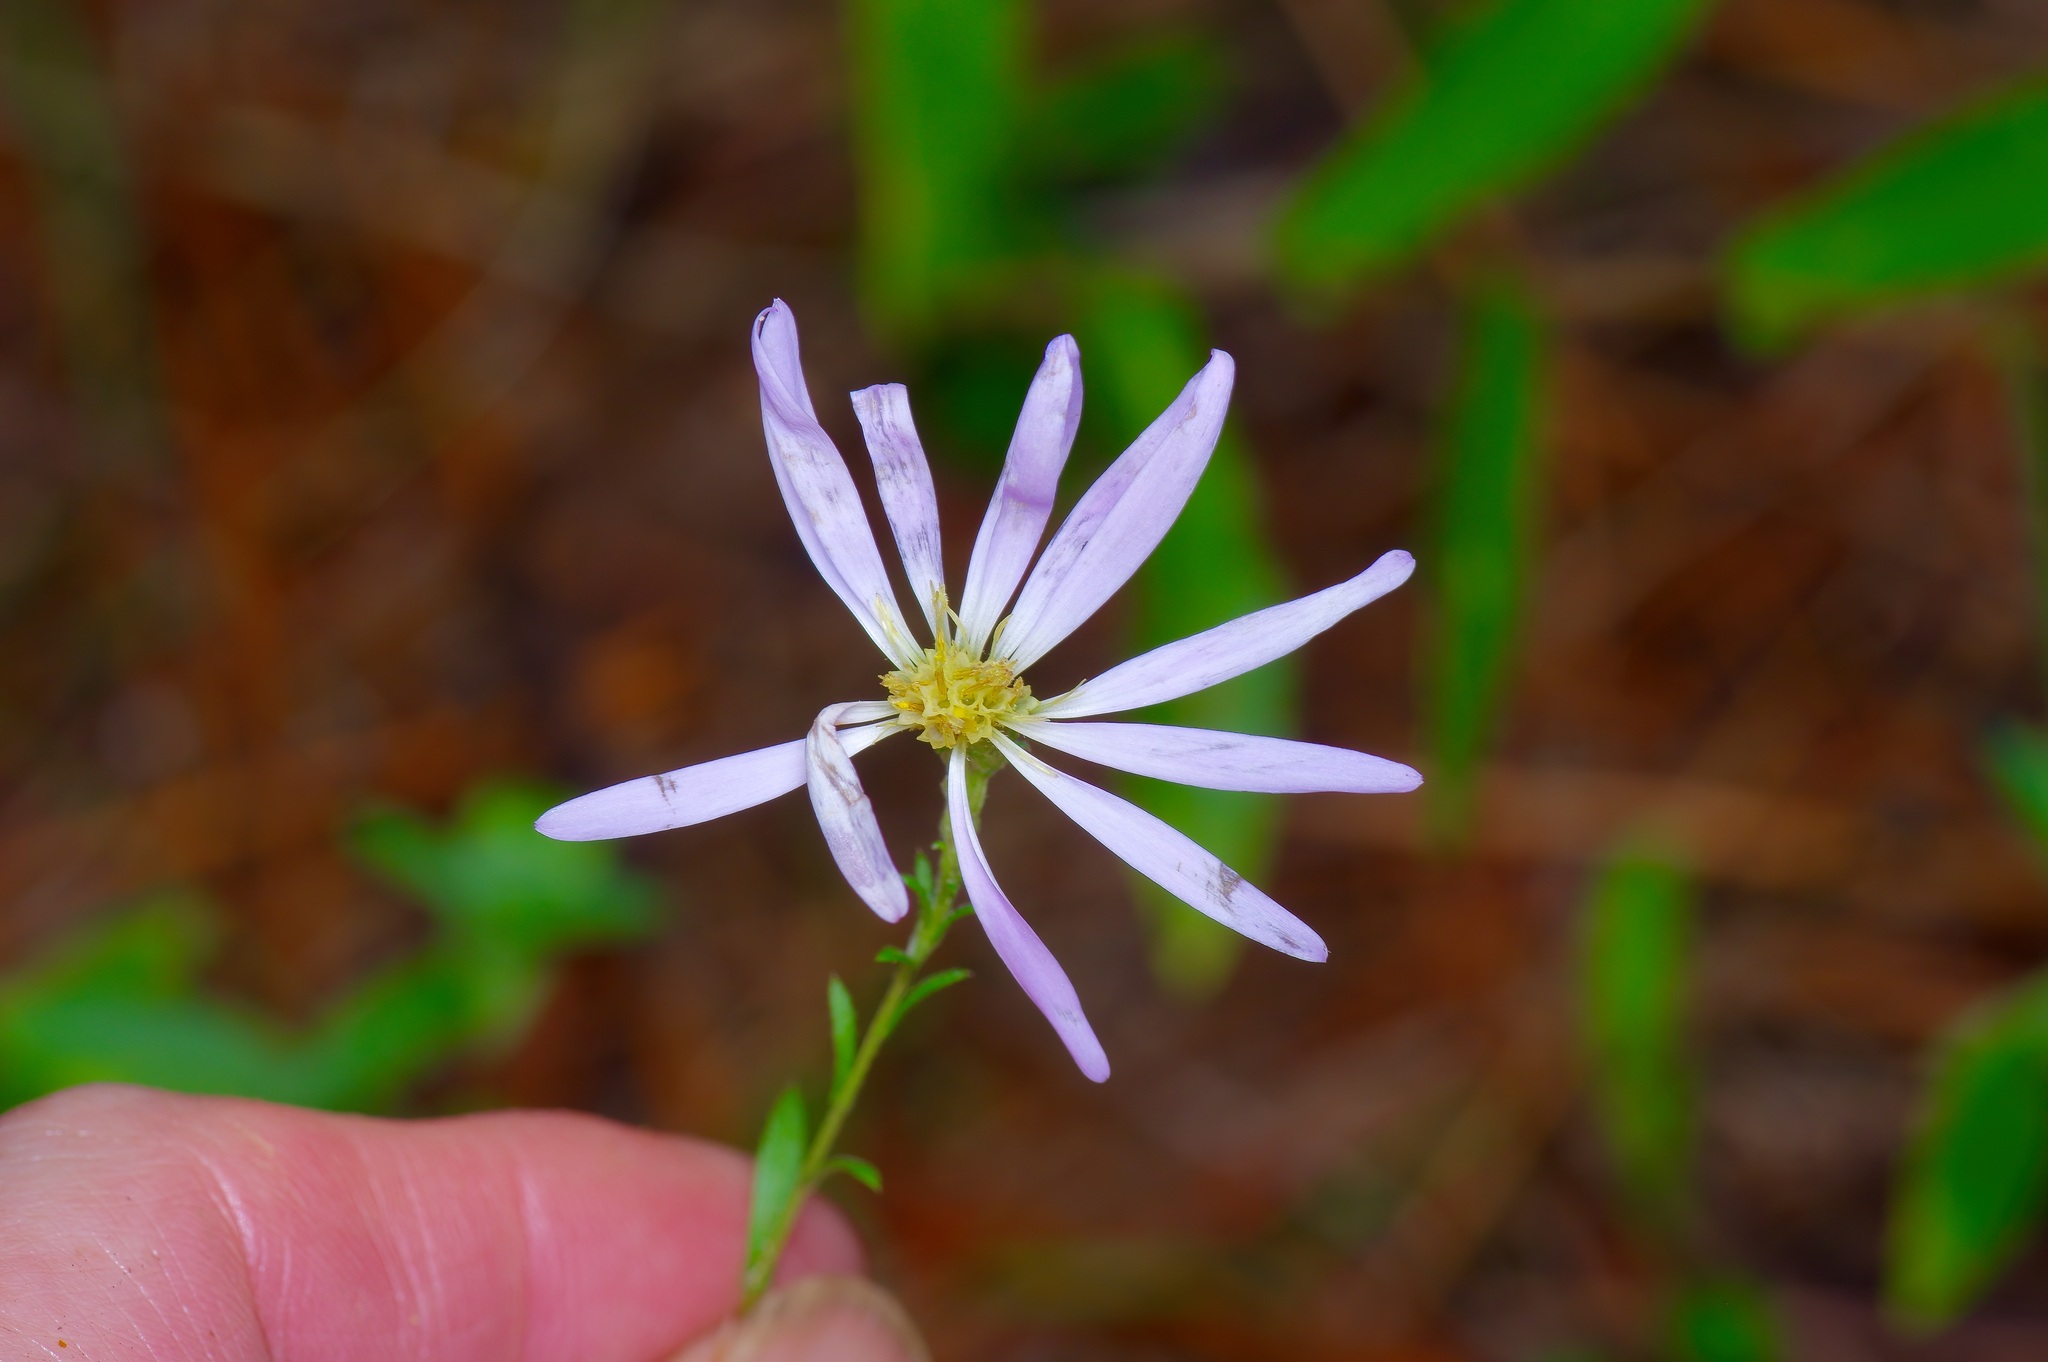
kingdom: Plantae
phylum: Tracheophyta
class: Magnoliopsida
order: Asterales
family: Asteraceae
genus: Symphyotrichum
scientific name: Symphyotrichum patens
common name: Late purple aster
